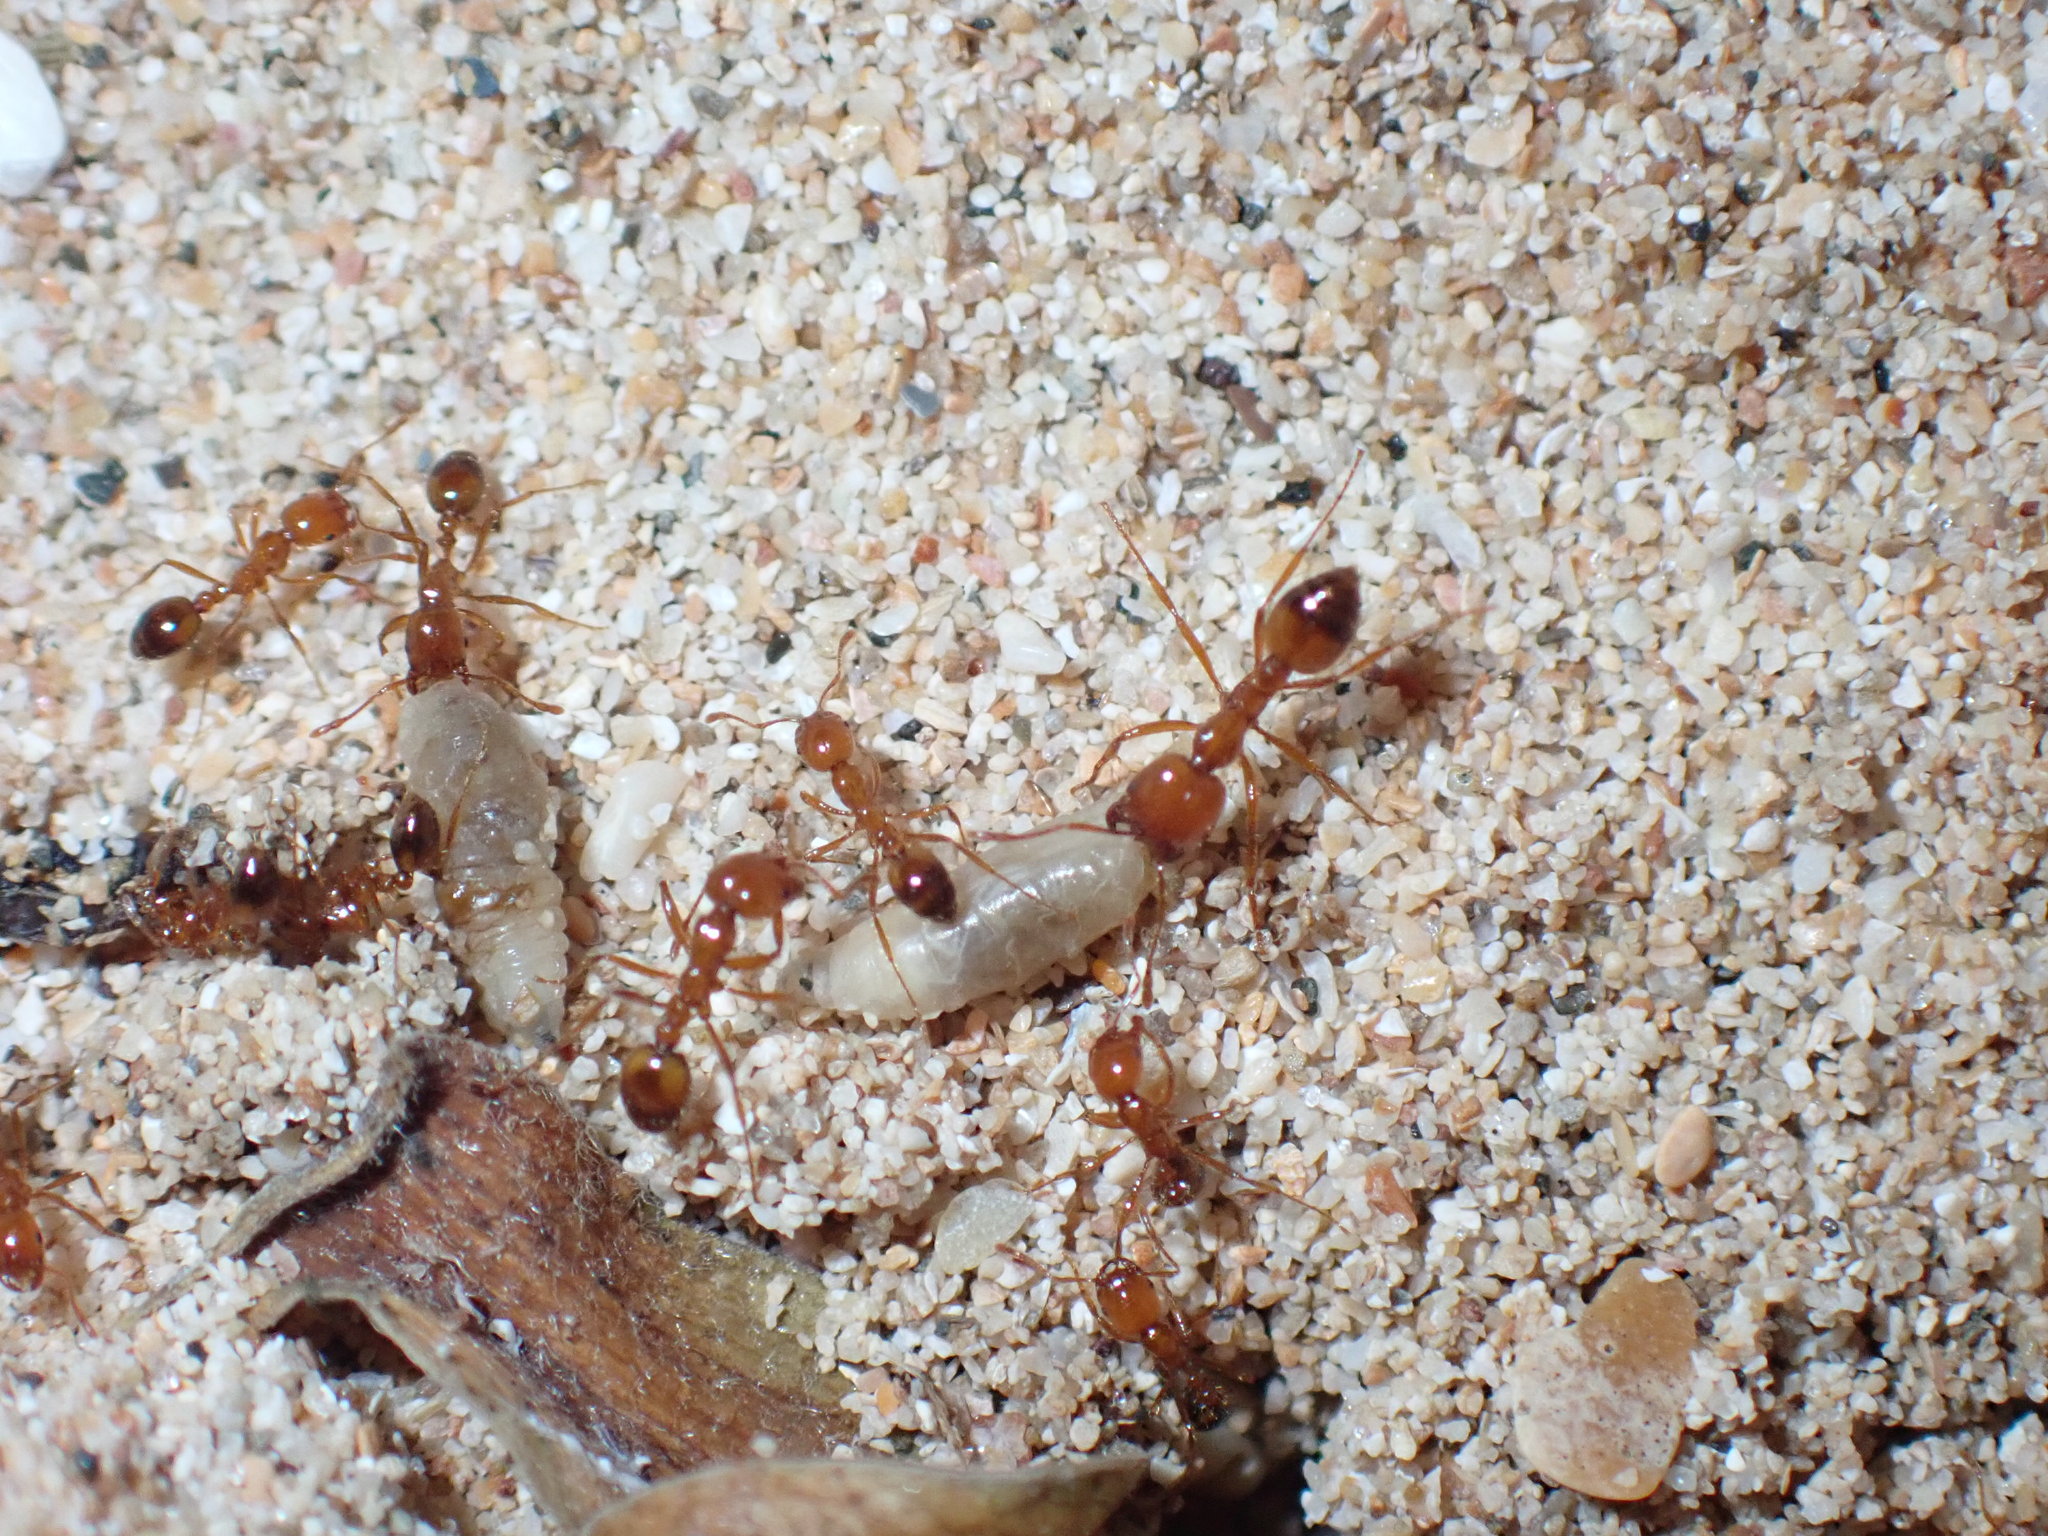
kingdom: Animalia
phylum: Arthropoda
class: Insecta
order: Hymenoptera
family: Formicidae
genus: Solenopsis
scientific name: Solenopsis geminata
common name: Tropical fire ant
